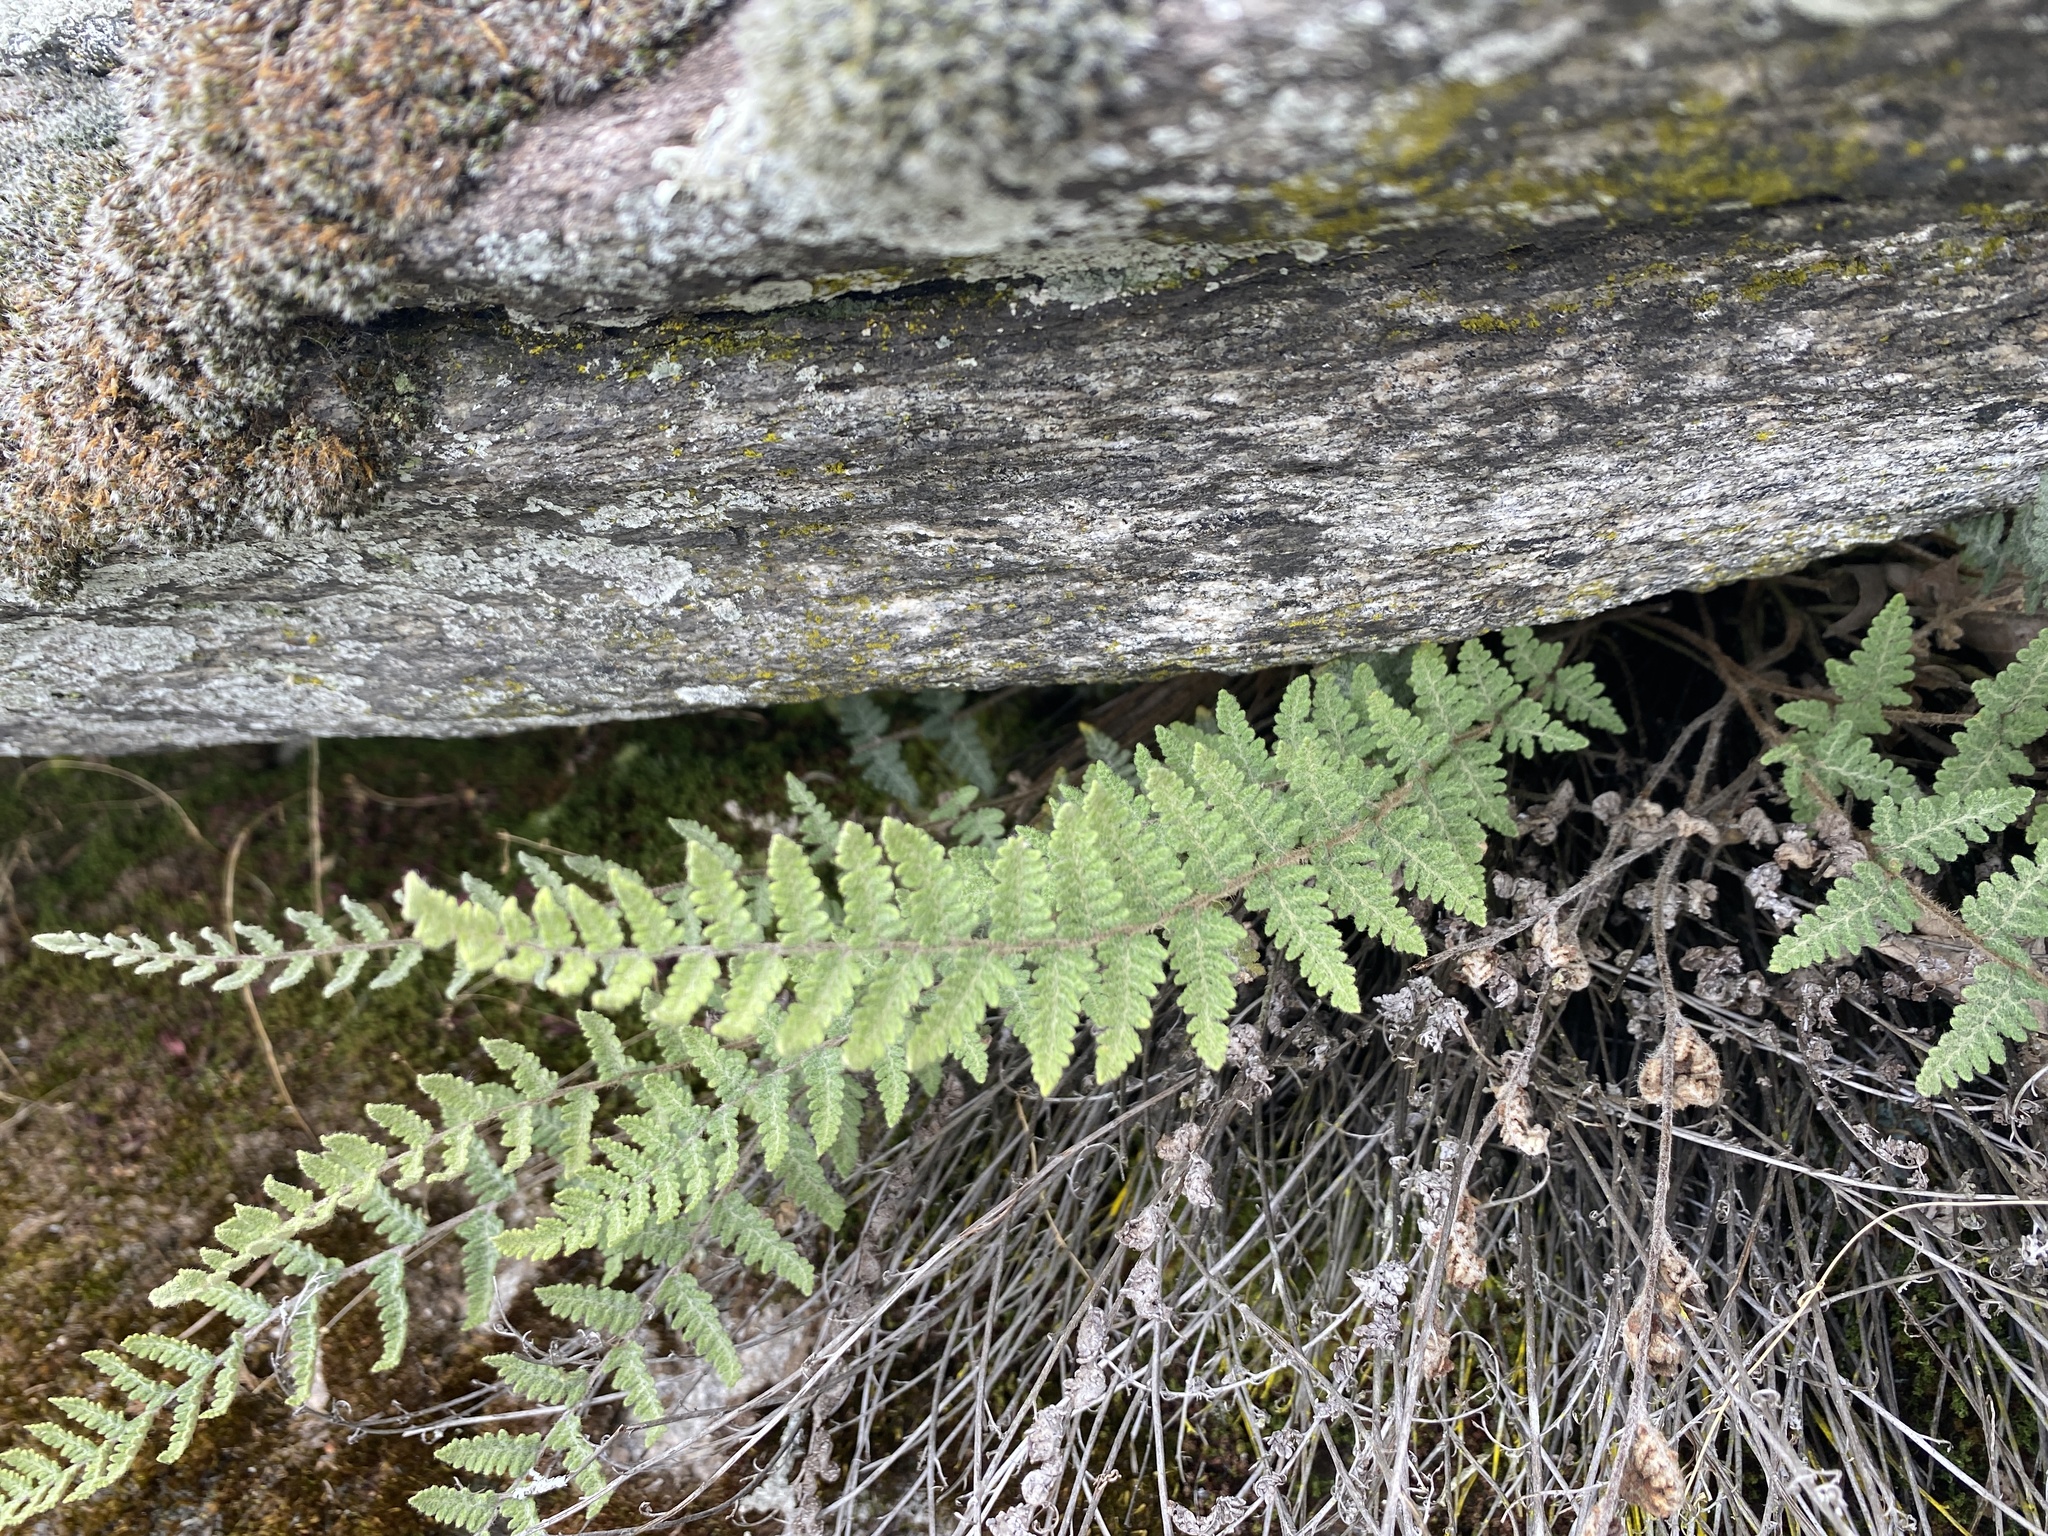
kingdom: Plantae
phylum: Tracheophyta
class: Polypodiopsida
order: Polypodiales
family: Pteridaceae
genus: Myriopteris
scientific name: Myriopteris tomentosa
